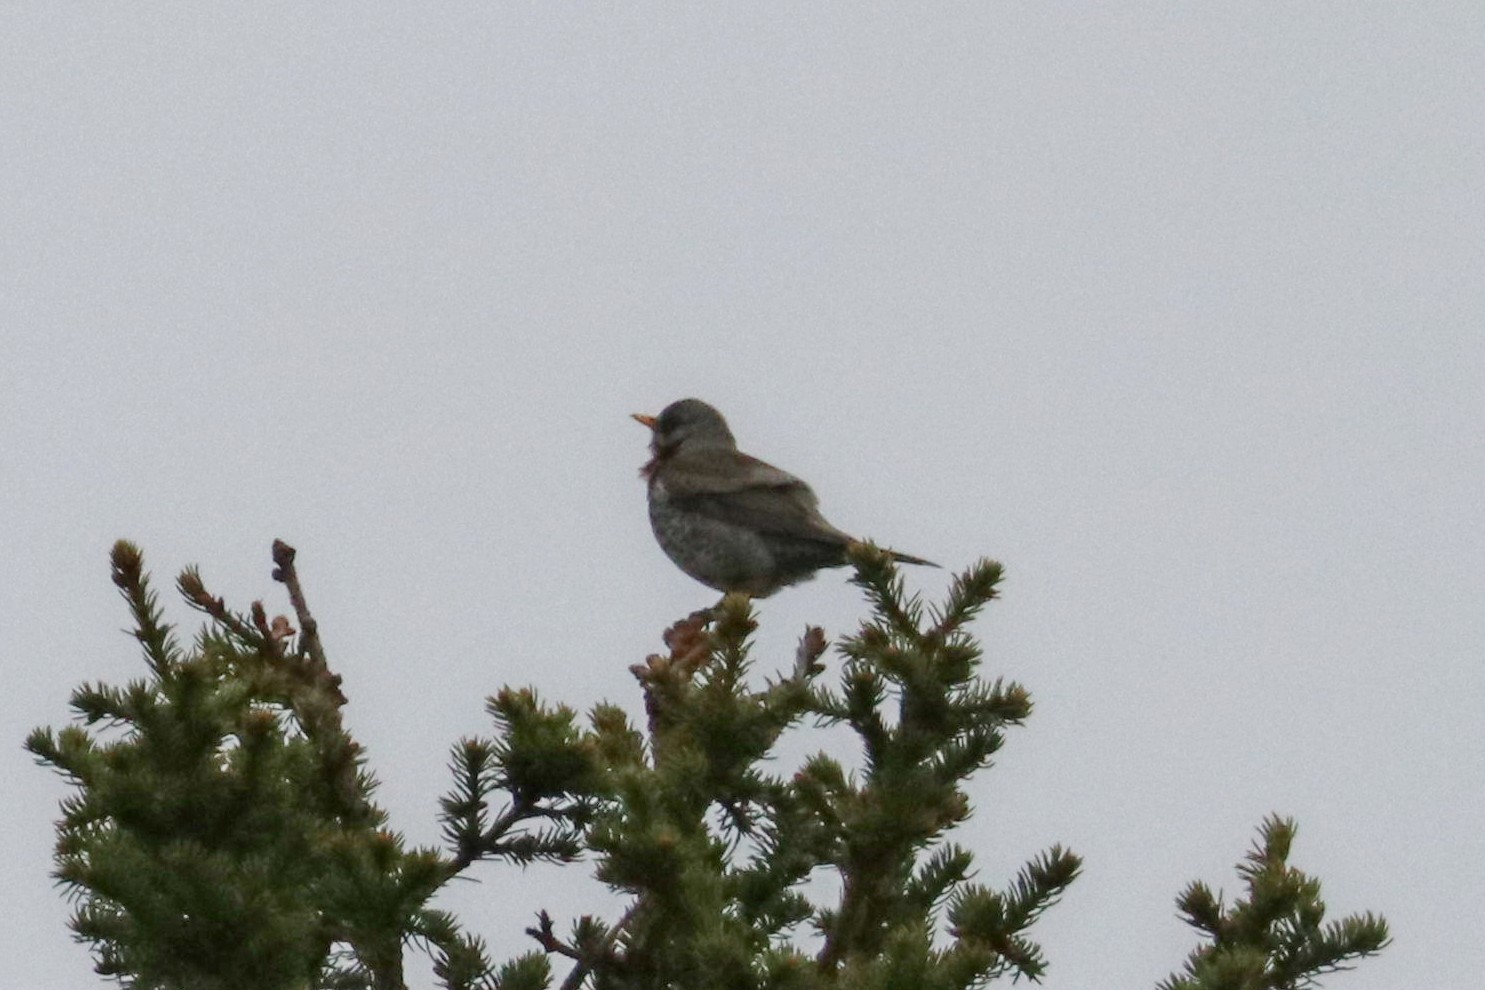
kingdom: Animalia
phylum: Chordata
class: Aves
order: Passeriformes
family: Turdidae
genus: Turdus
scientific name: Turdus pilaris
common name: Fieldfare
